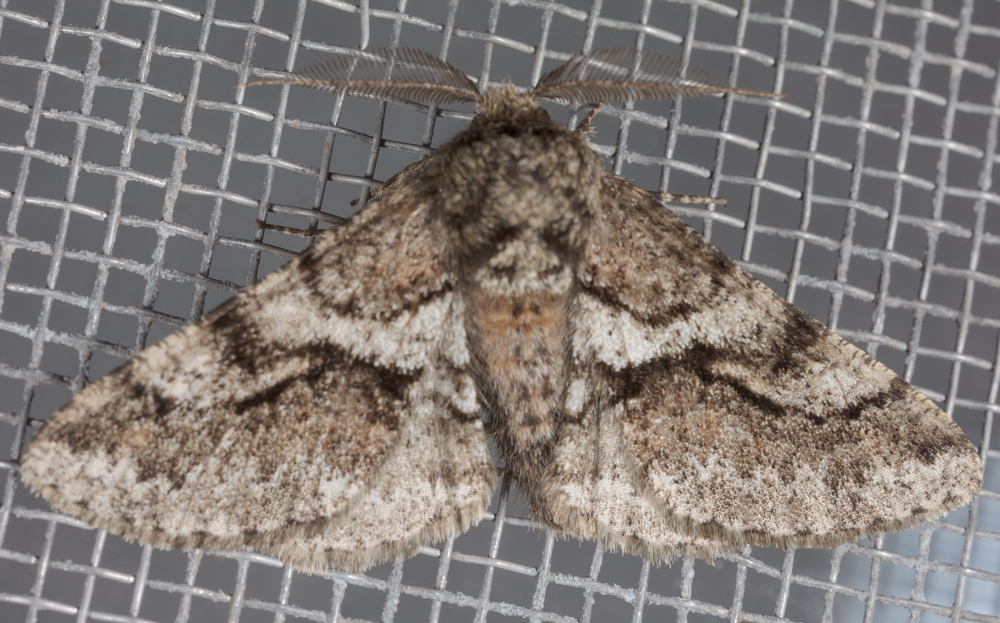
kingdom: Animalia
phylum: Arthropoda
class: Insecta
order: Lepidoptera
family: Geometridae
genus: Lycia
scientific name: Lycia ypsilon
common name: Wooly gray
